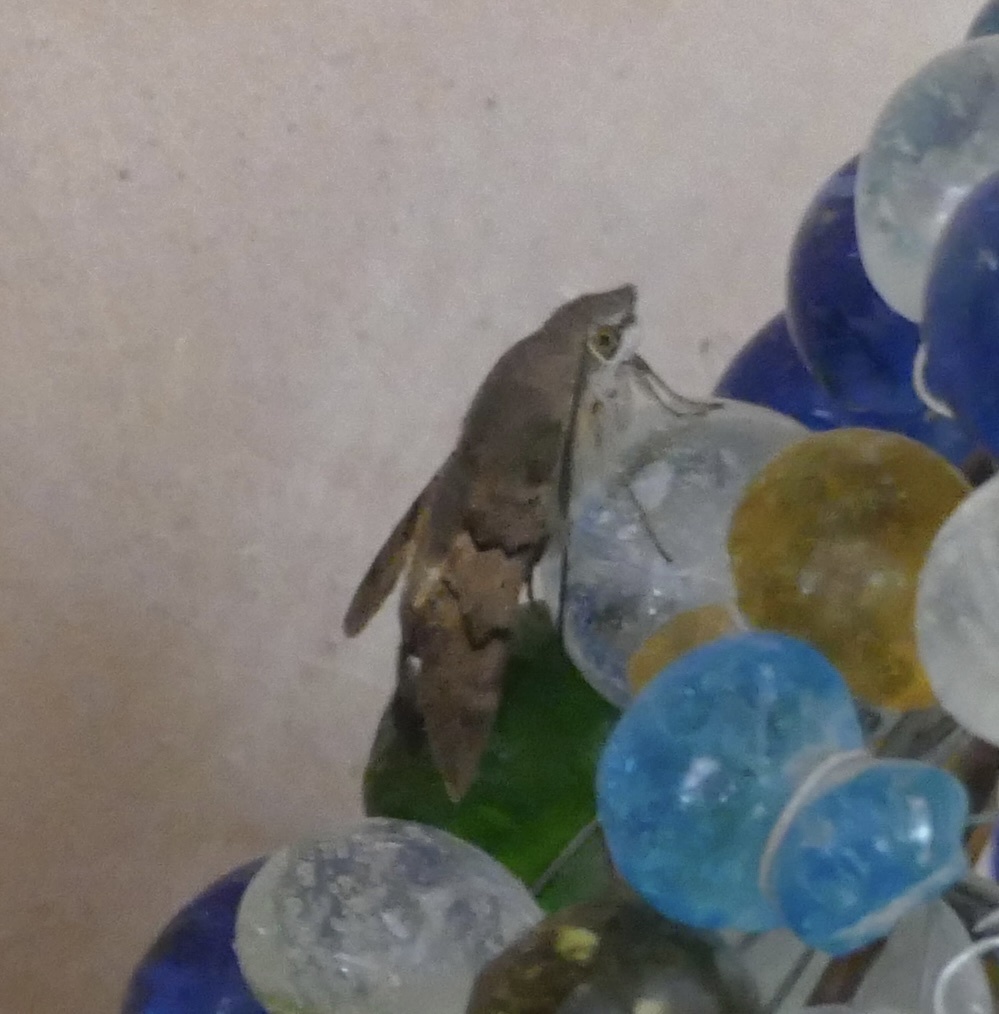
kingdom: Animalia
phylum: Arthropoda
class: Insecta
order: Lepidoptera
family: Sphingidae
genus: Macroglossum
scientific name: Macroglossum stellatarum
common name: Humming-bird hawk-moth
